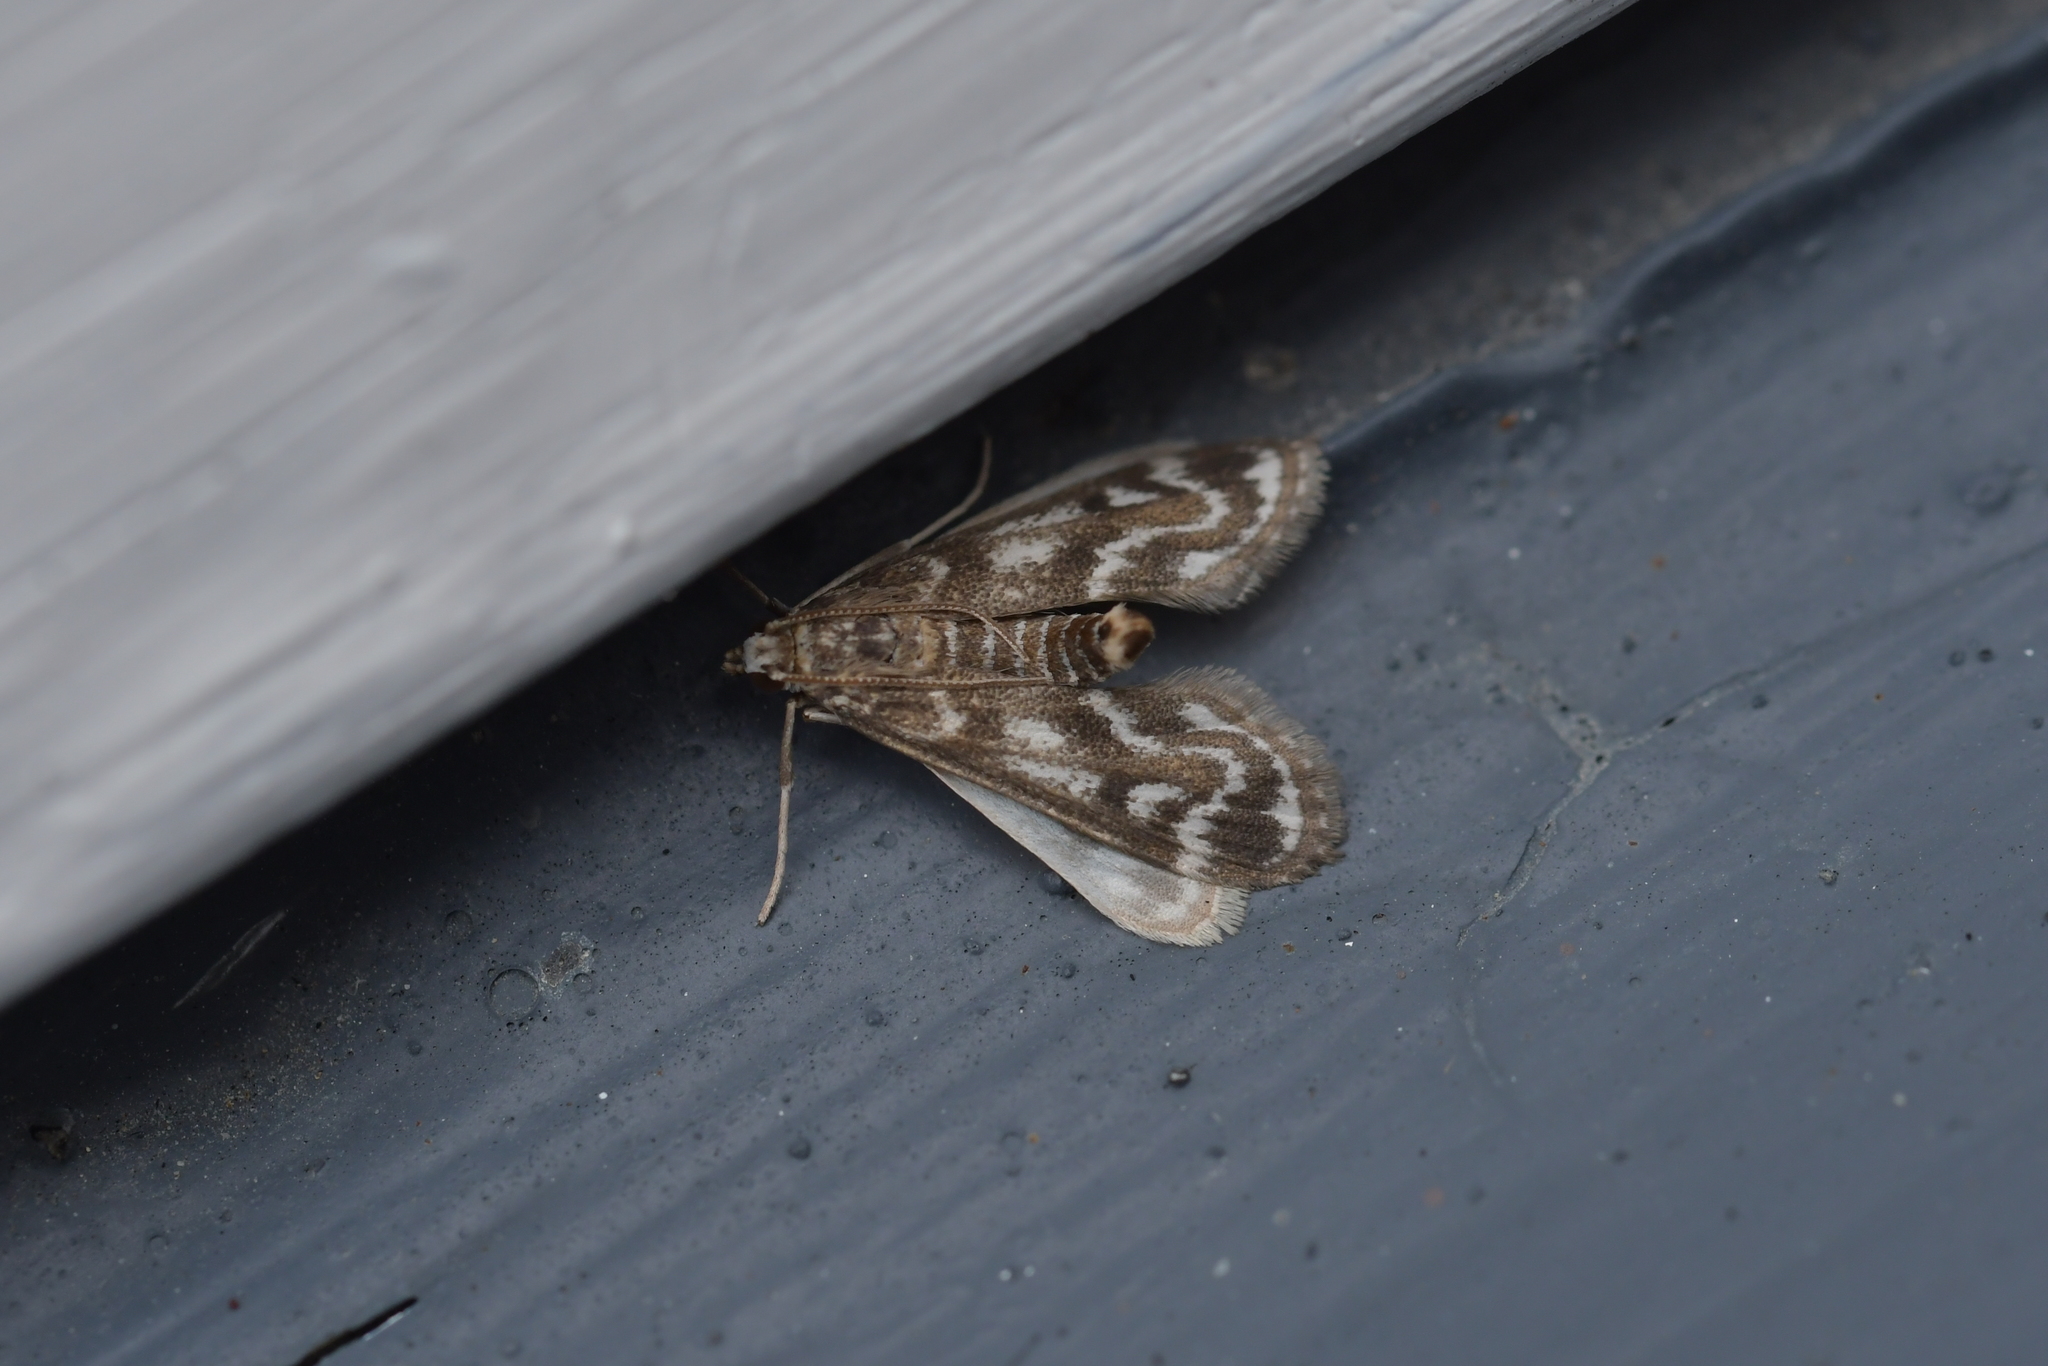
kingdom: Animalia
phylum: Arthropoda
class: Insecta
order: Lepidoptera
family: Crambidae
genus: Hygraula
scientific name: Hygraula nitens
